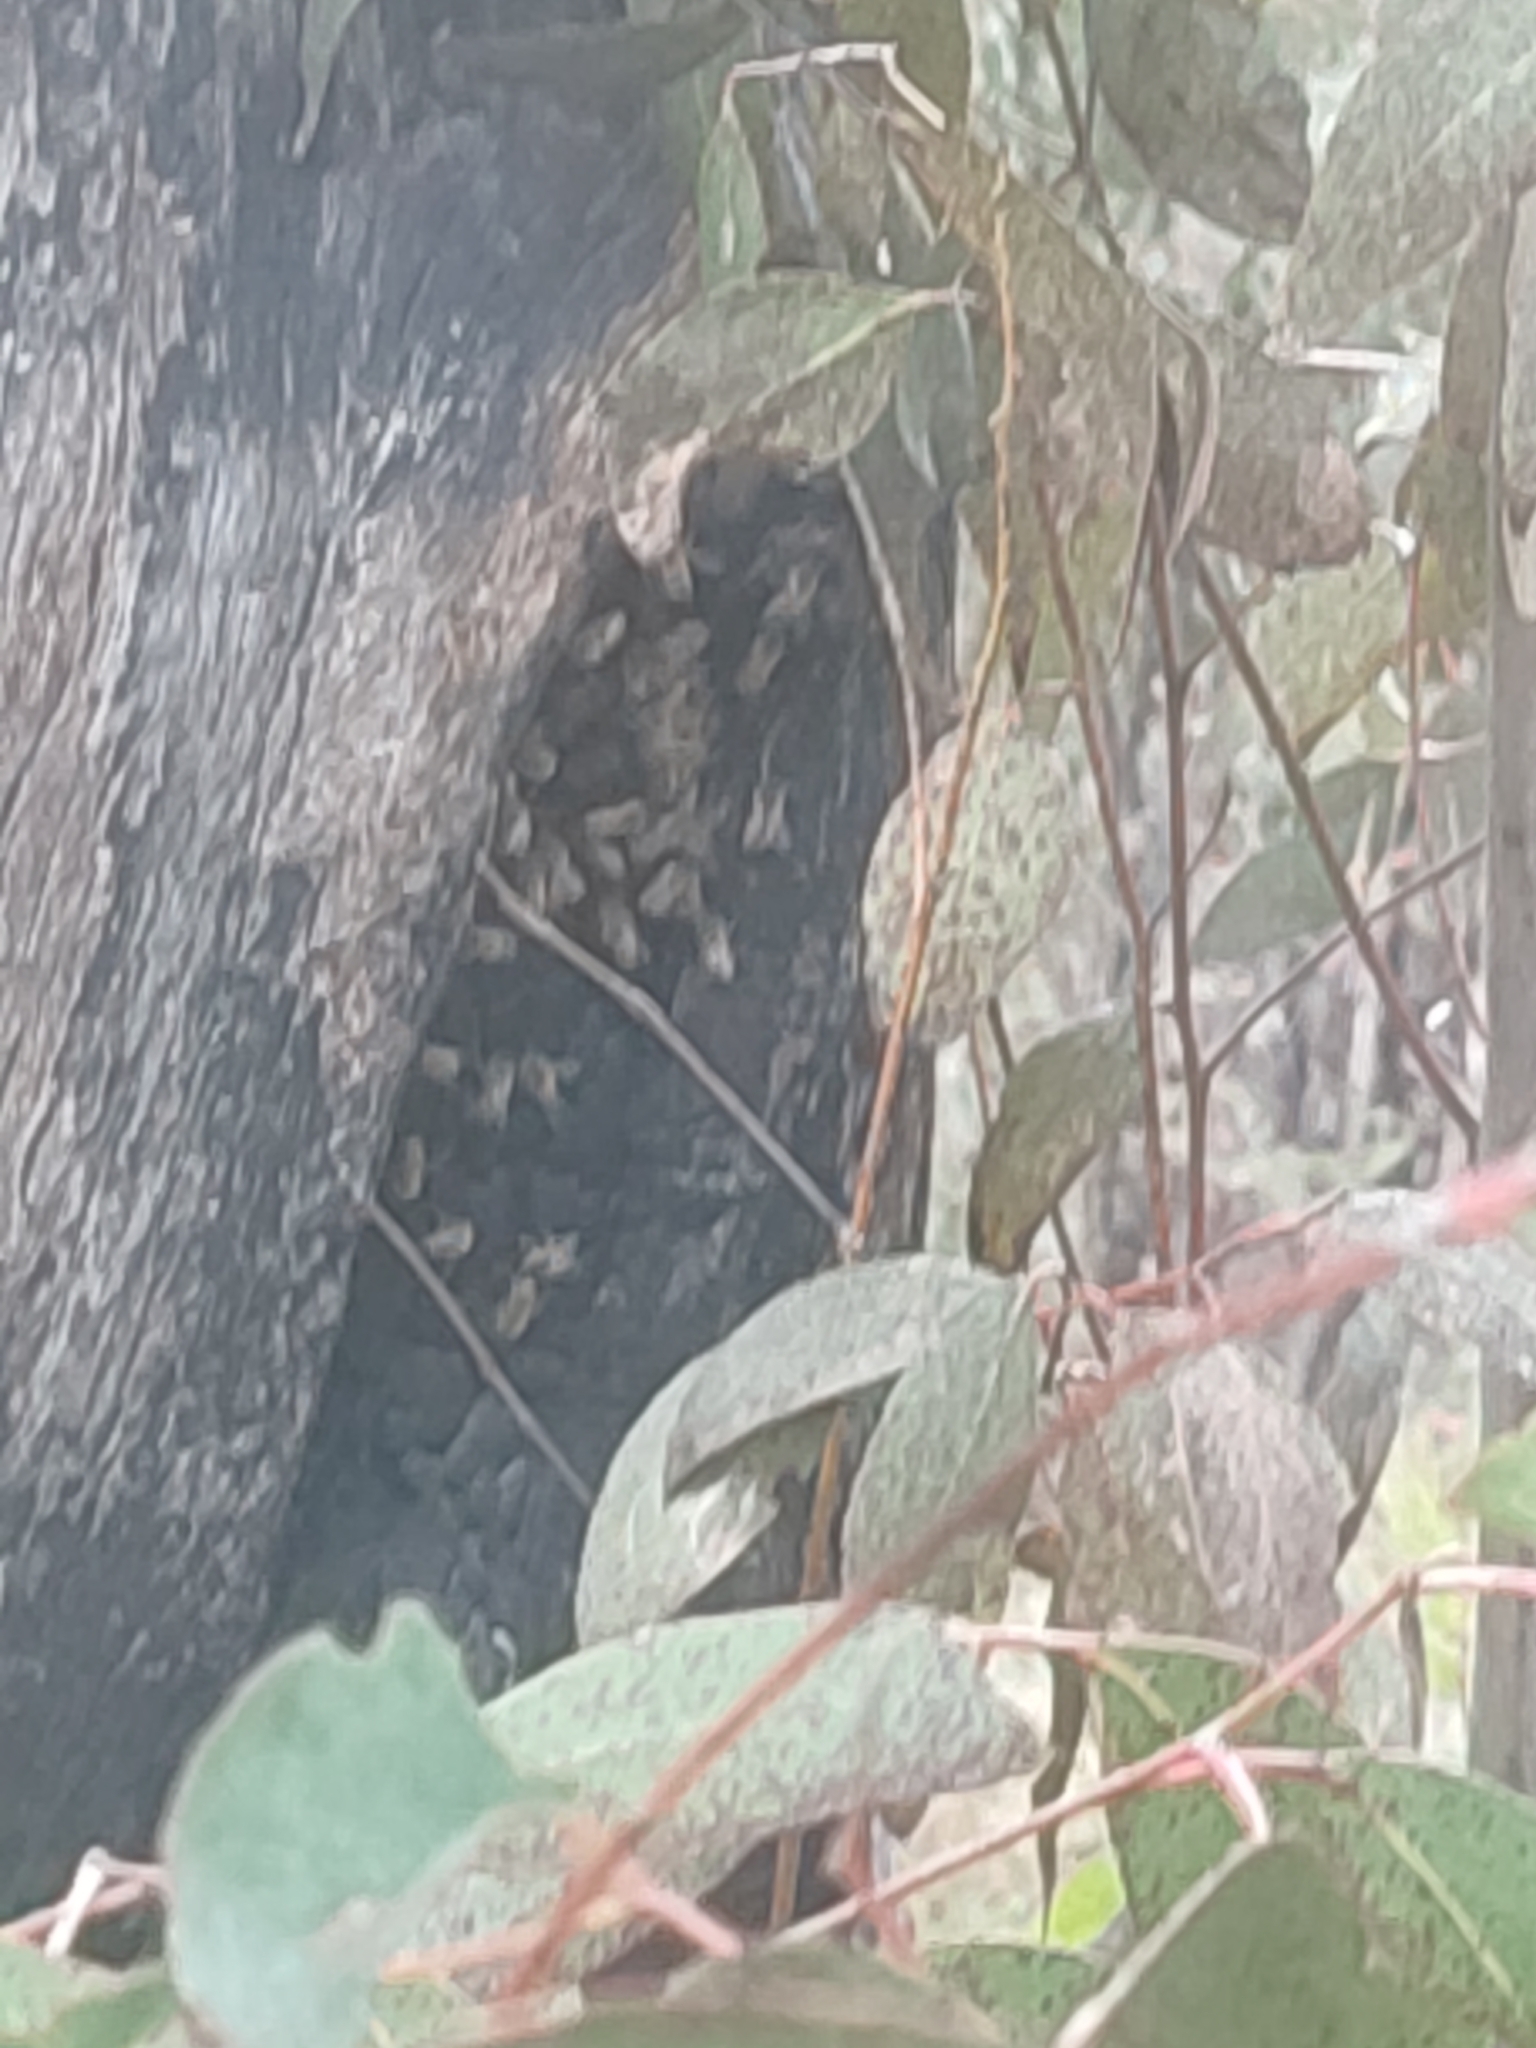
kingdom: Animalia
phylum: Arthropoda
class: Insecta
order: Hymenoptera
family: Apidae
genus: Apis
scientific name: Apis mellifera
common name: Honey bee
